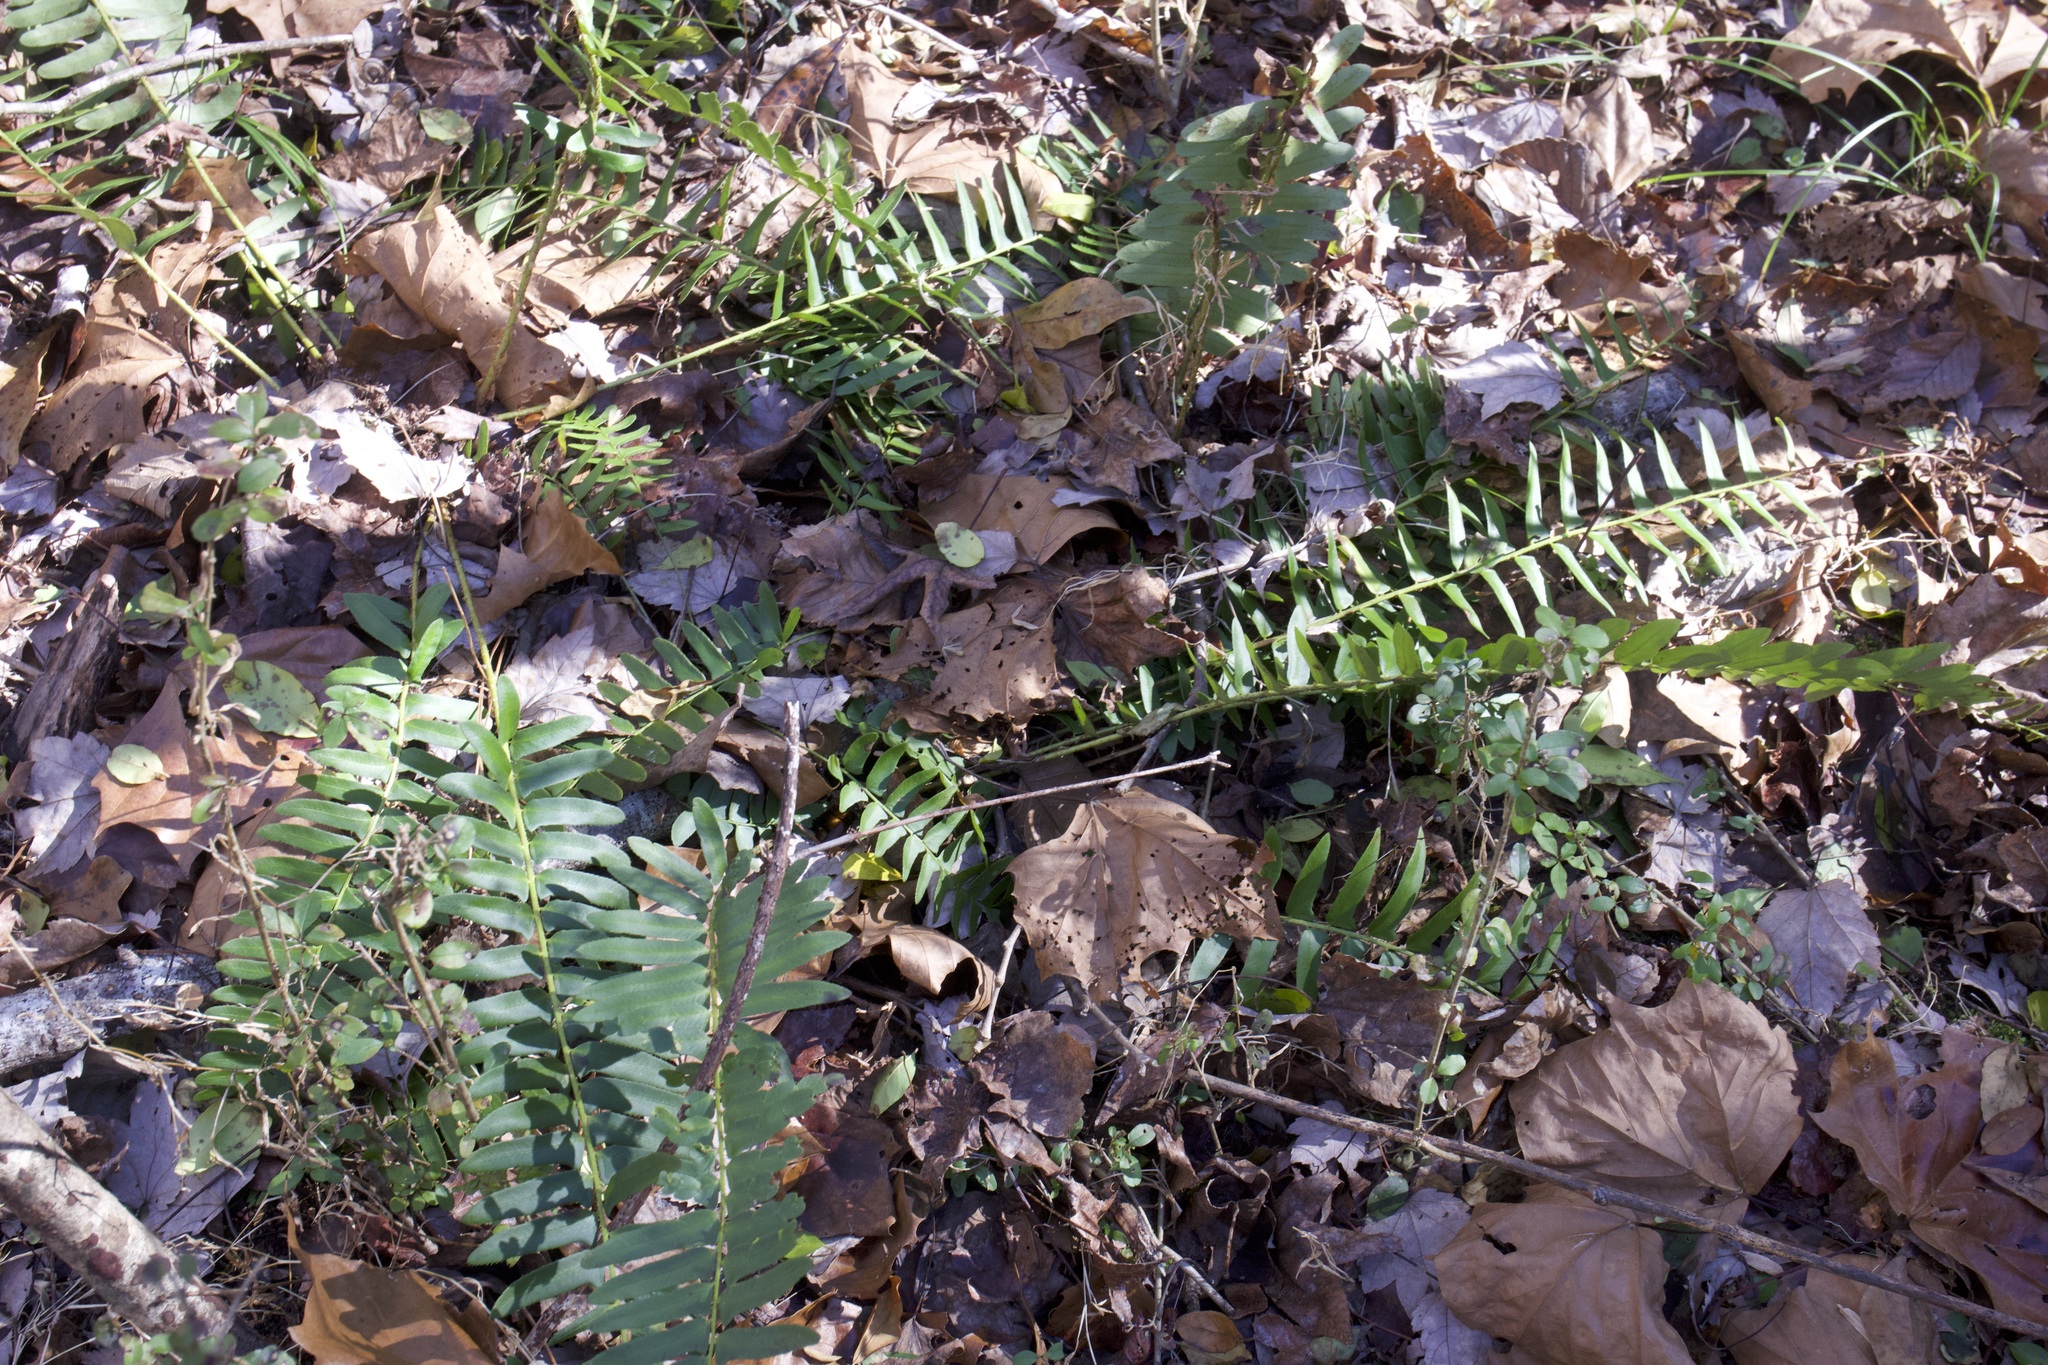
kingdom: Plantae
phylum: Tracheophyta
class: Polypodiopsida
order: Polypodiales
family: Dryopteridaceae
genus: Polystichum
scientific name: Polystichum acrostichoides
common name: Christmas fern
